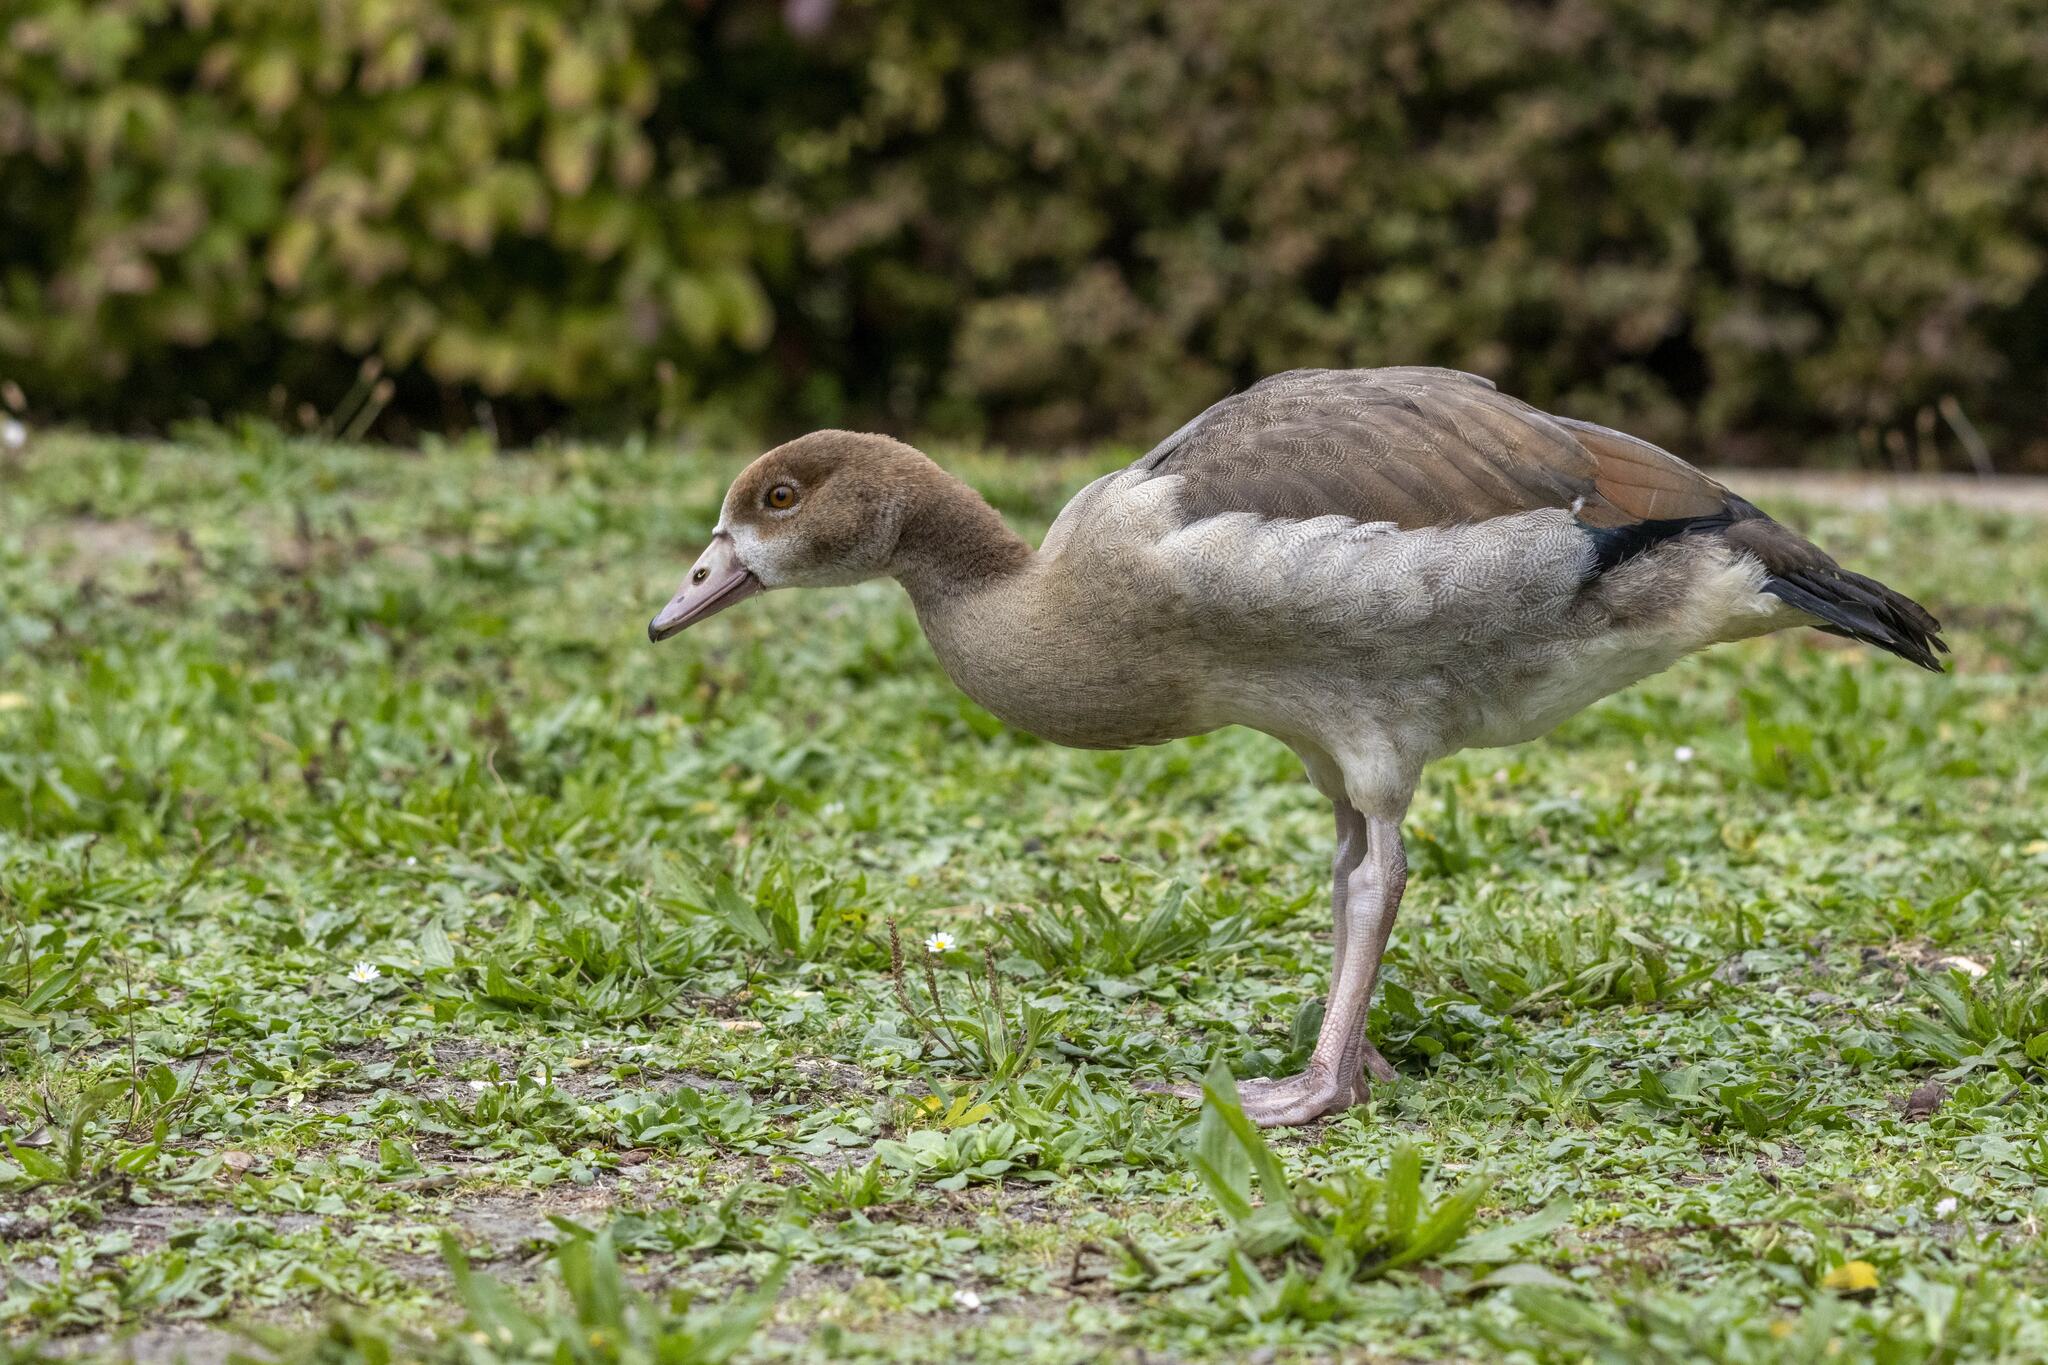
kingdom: Animalia
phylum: Chordata
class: Aves
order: Anseriformes
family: Anatidae
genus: Alopochen
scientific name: Alopochen aegyptiaca
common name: Egyptian goose
